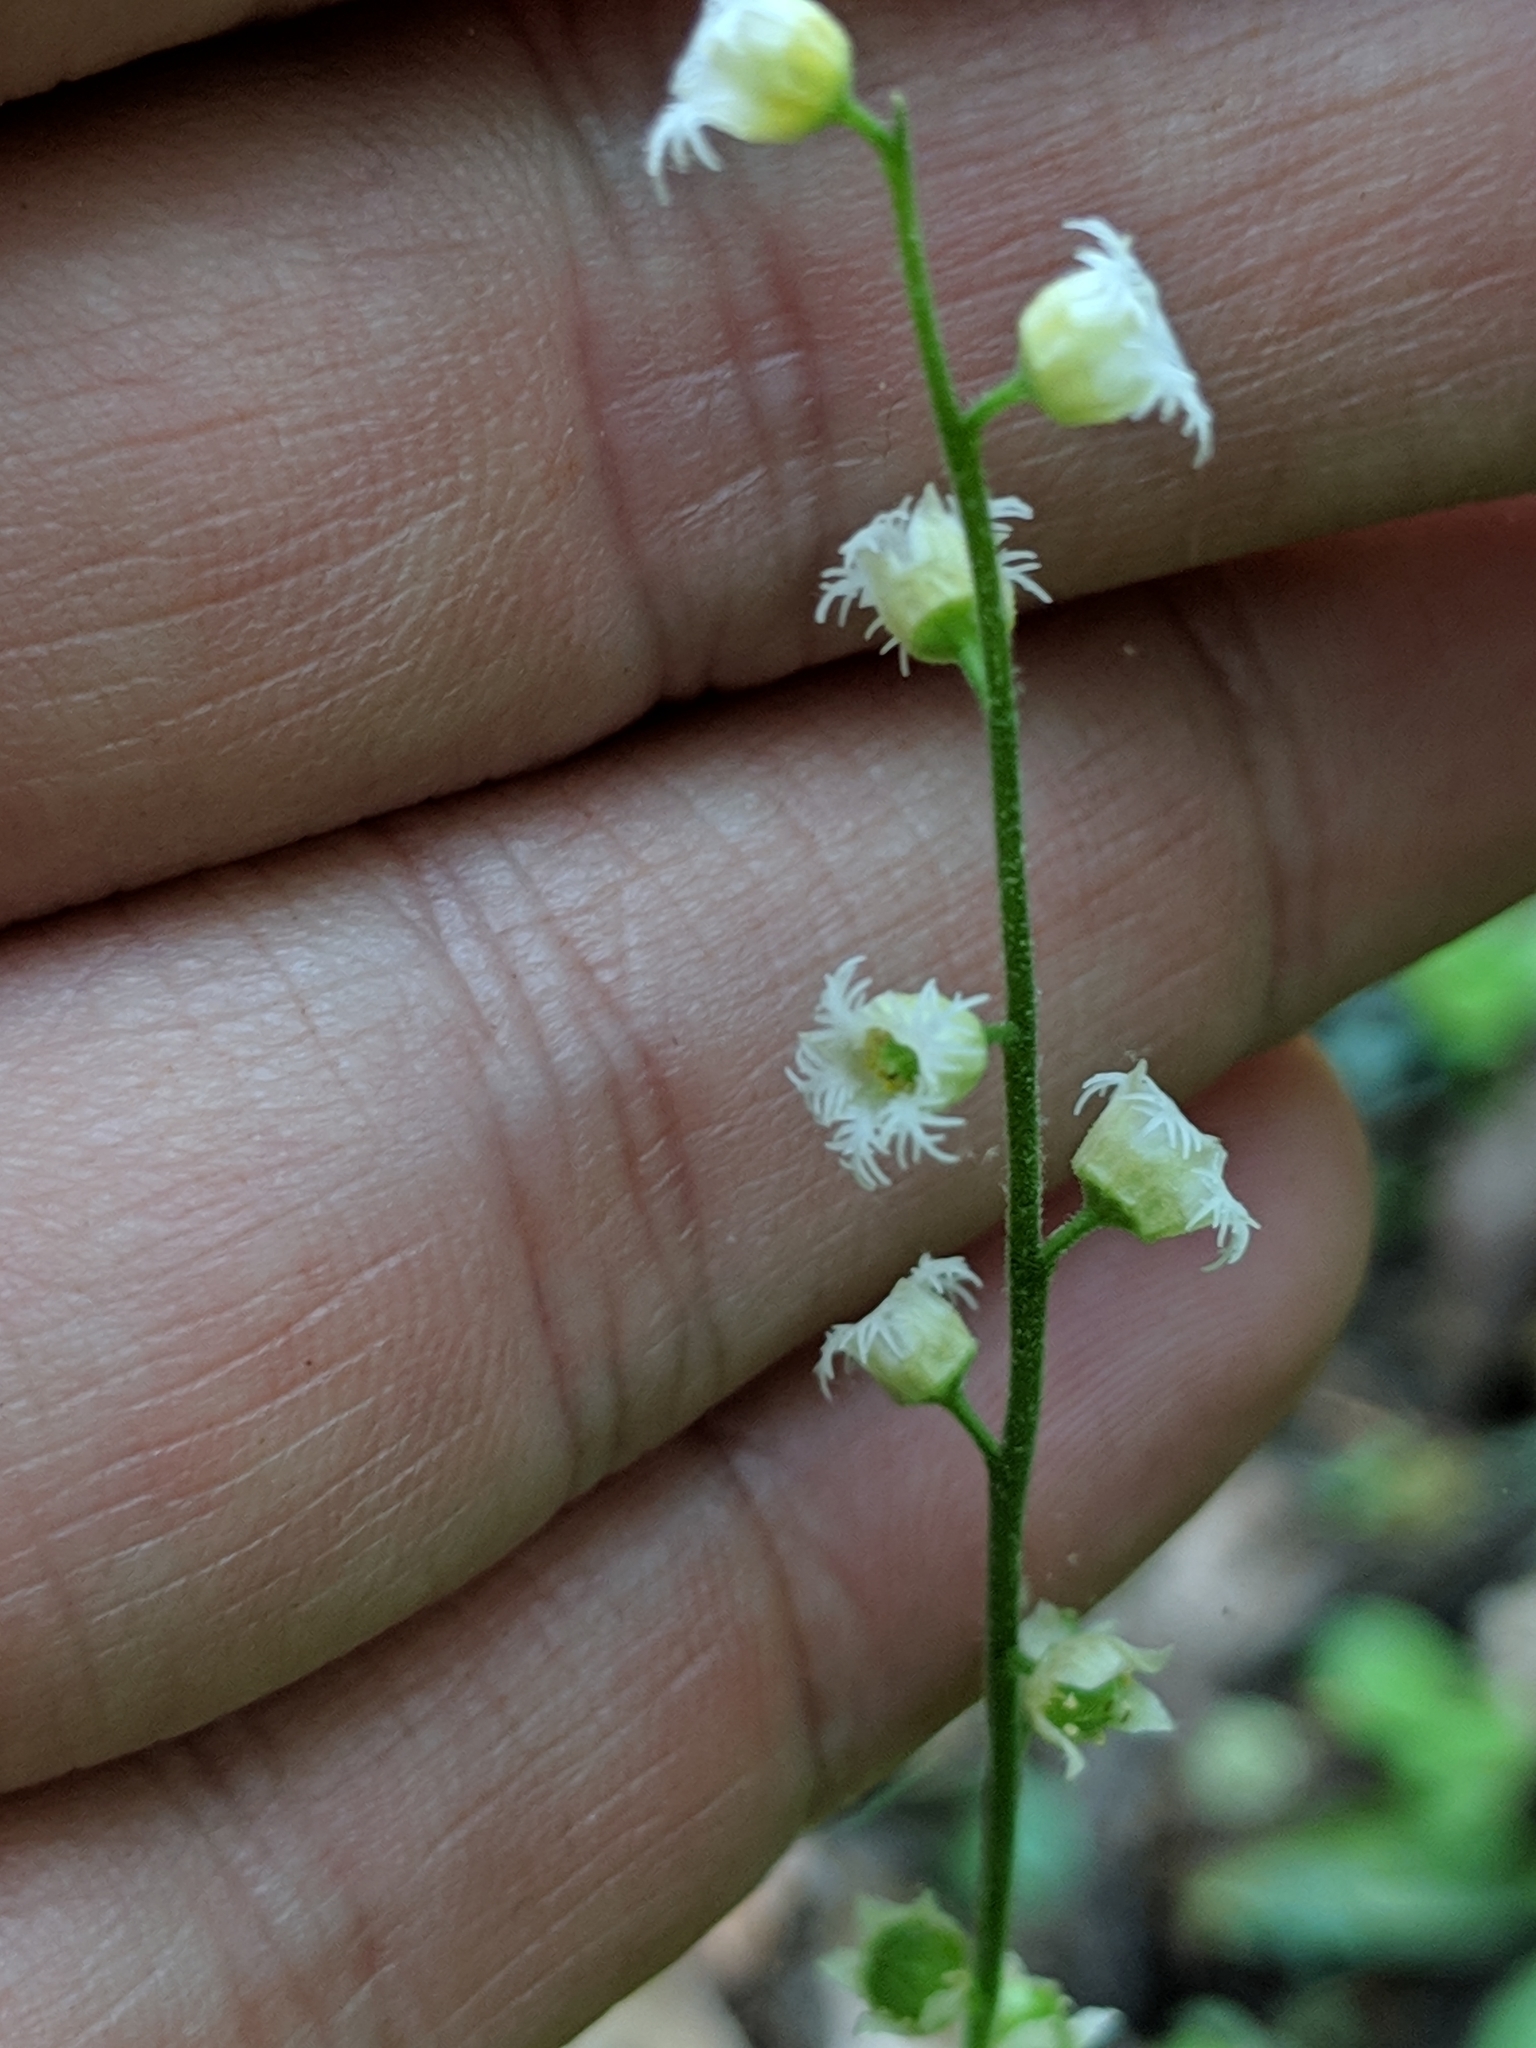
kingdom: Plantae
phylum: Tracheophyta
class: Magnoliopsida
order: Saxifragales
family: Saxifragaceae
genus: Mitella
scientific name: Mitella diphylla
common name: Coolwort
